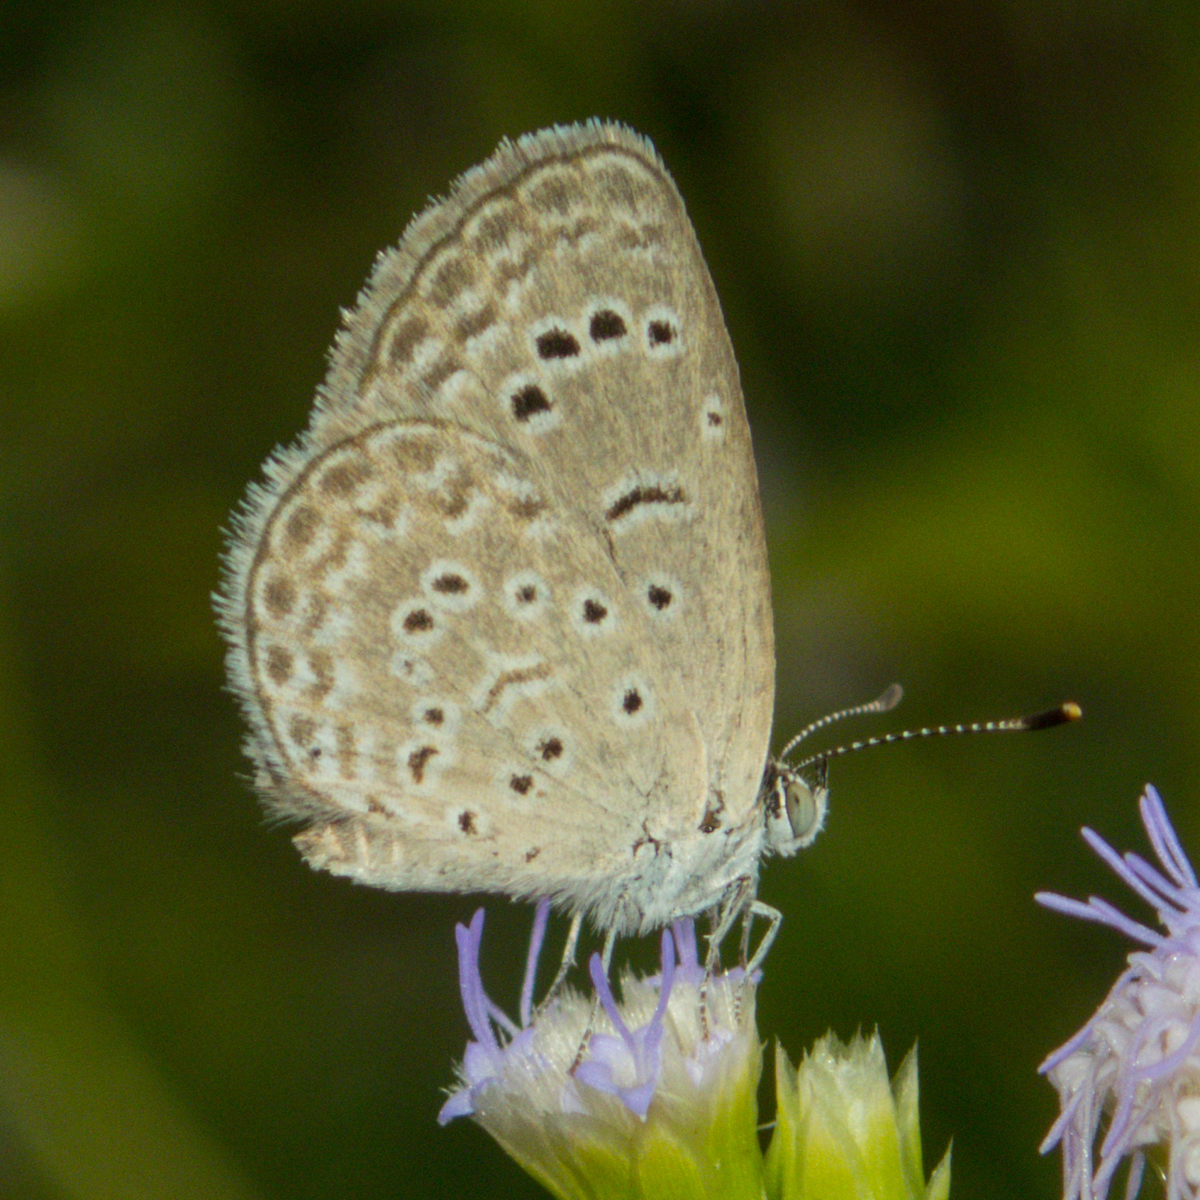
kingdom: Animalia
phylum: Arthropoda
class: Insecta
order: Lepidoptera
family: Lycaenidae
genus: Zizeeria
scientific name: Zizeeria karsandra
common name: Dark grass blue
